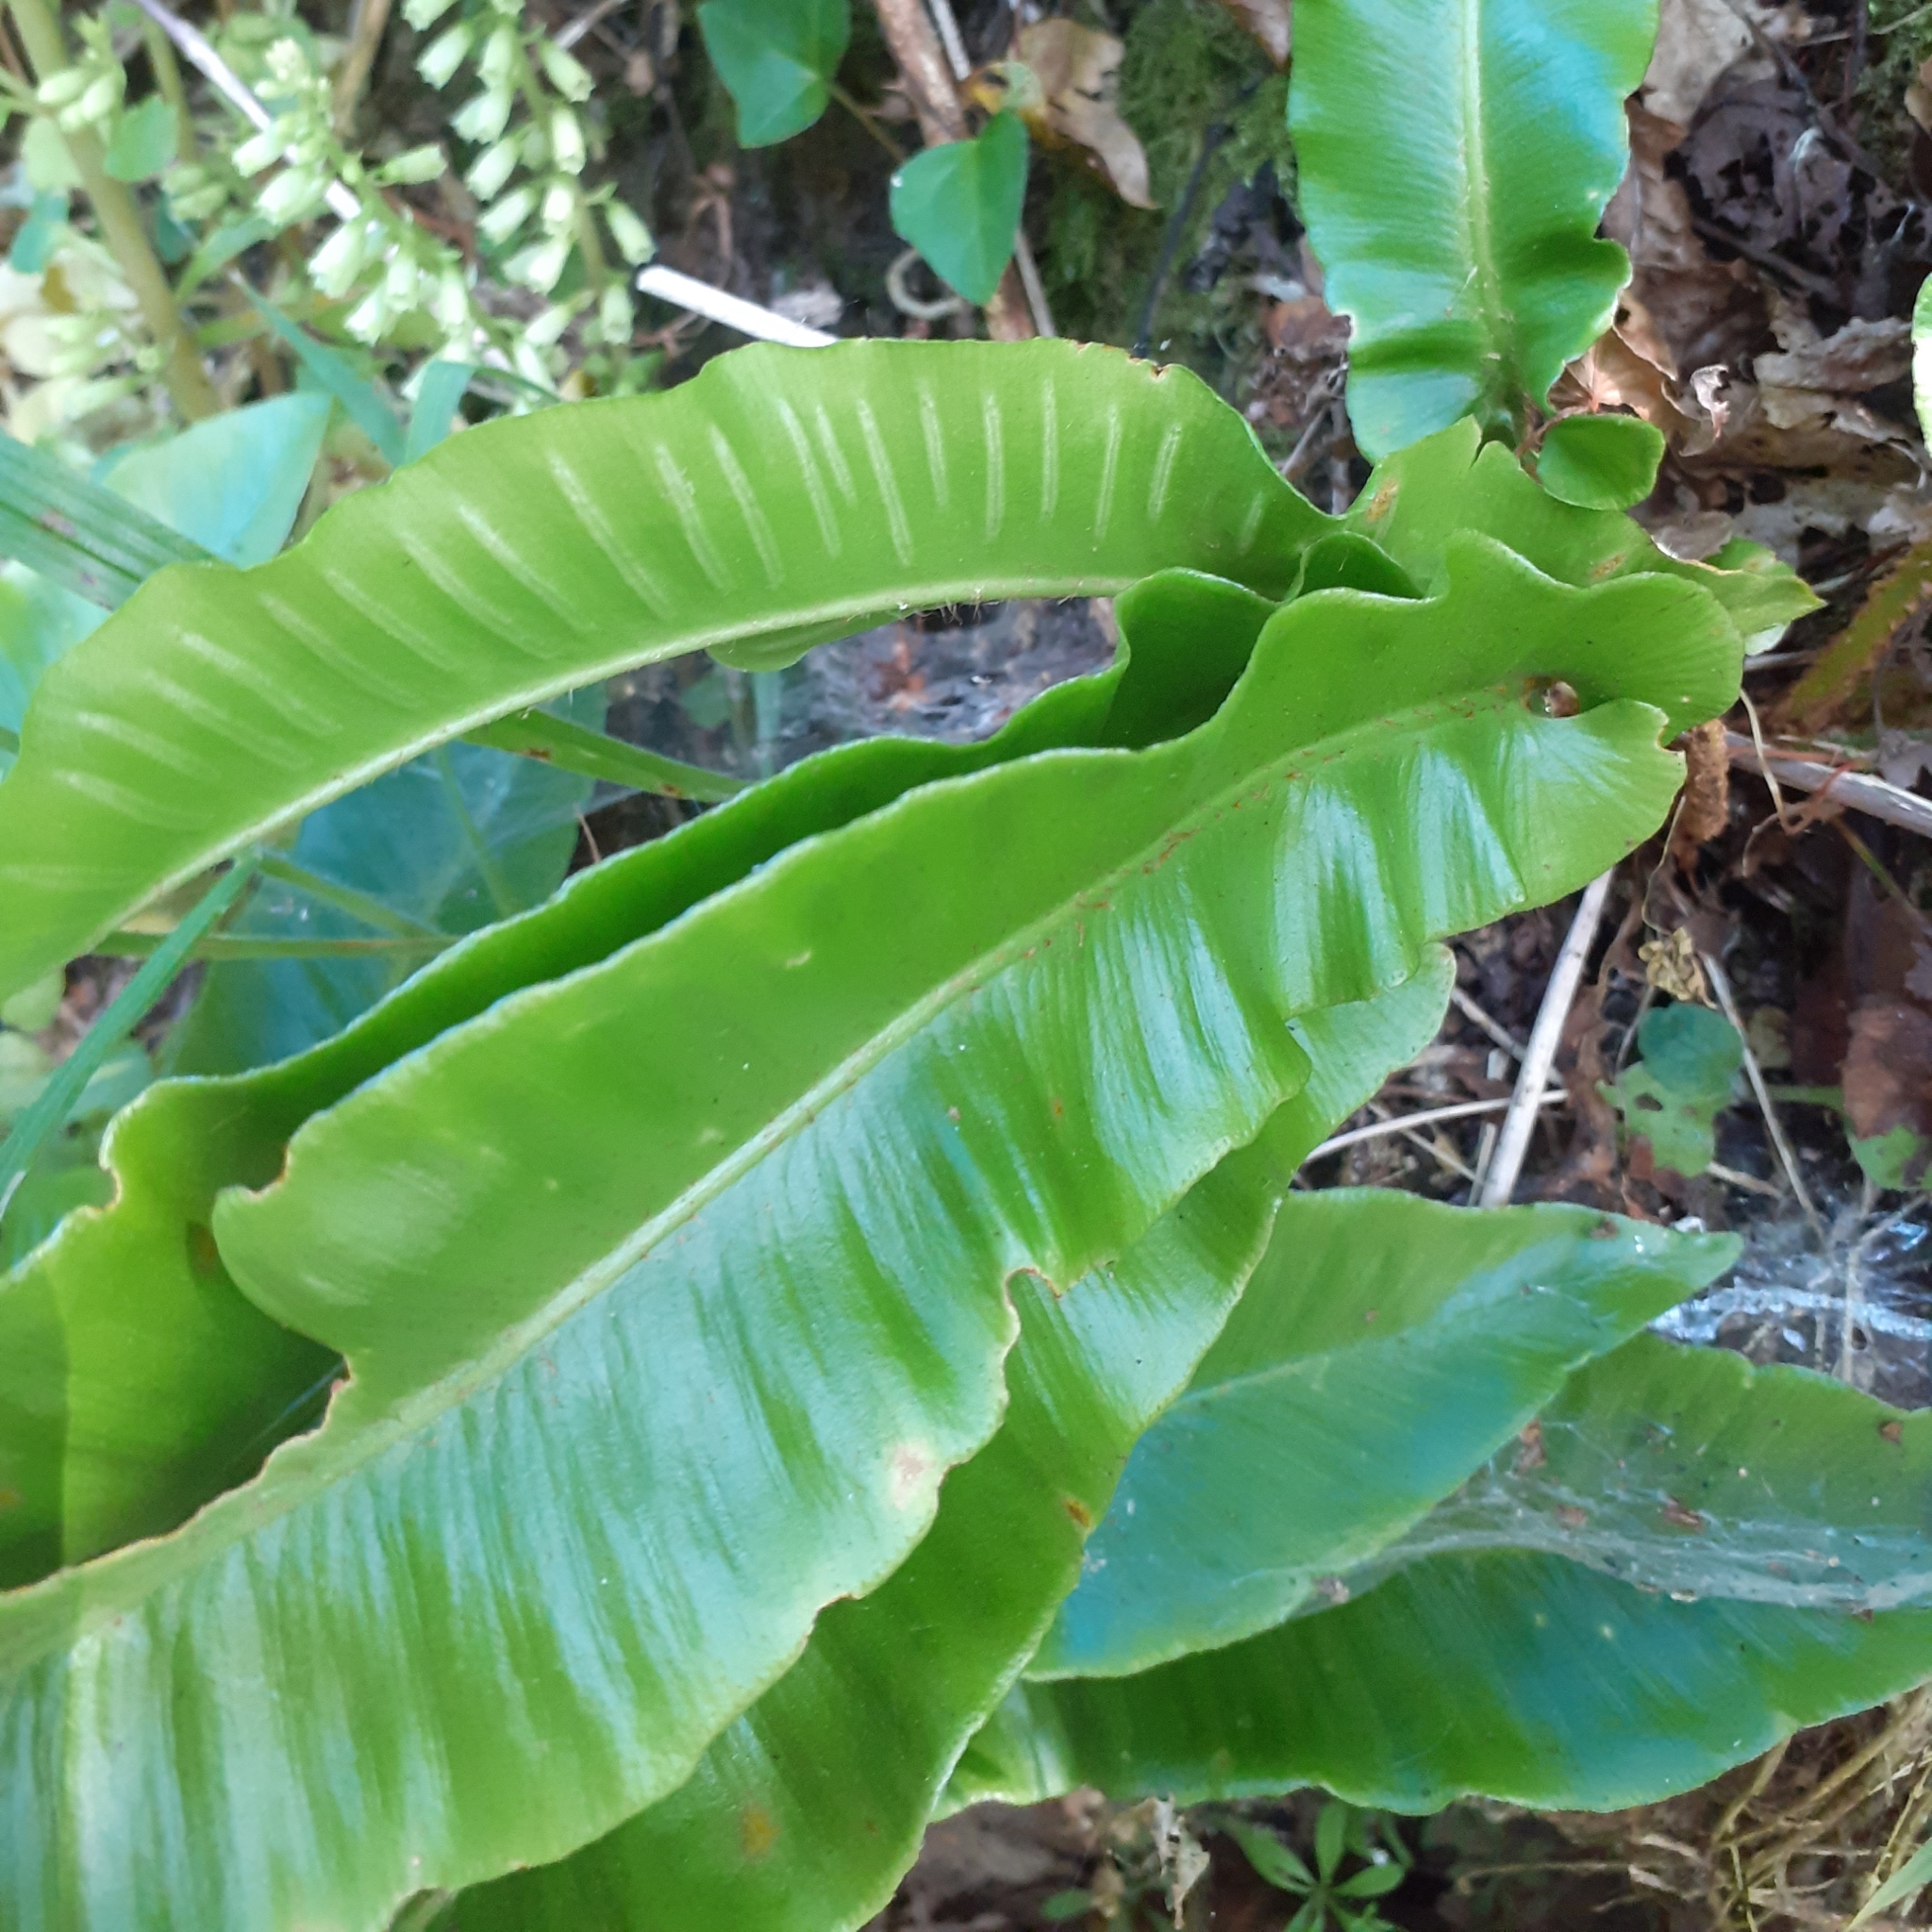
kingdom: Plantae
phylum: Tracheophyta
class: Polypodiopsida
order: Polypodiales
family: Aspleniaceae
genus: Asplenium
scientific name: Asplenium scolopendrium
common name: Hart's-tongue fern
